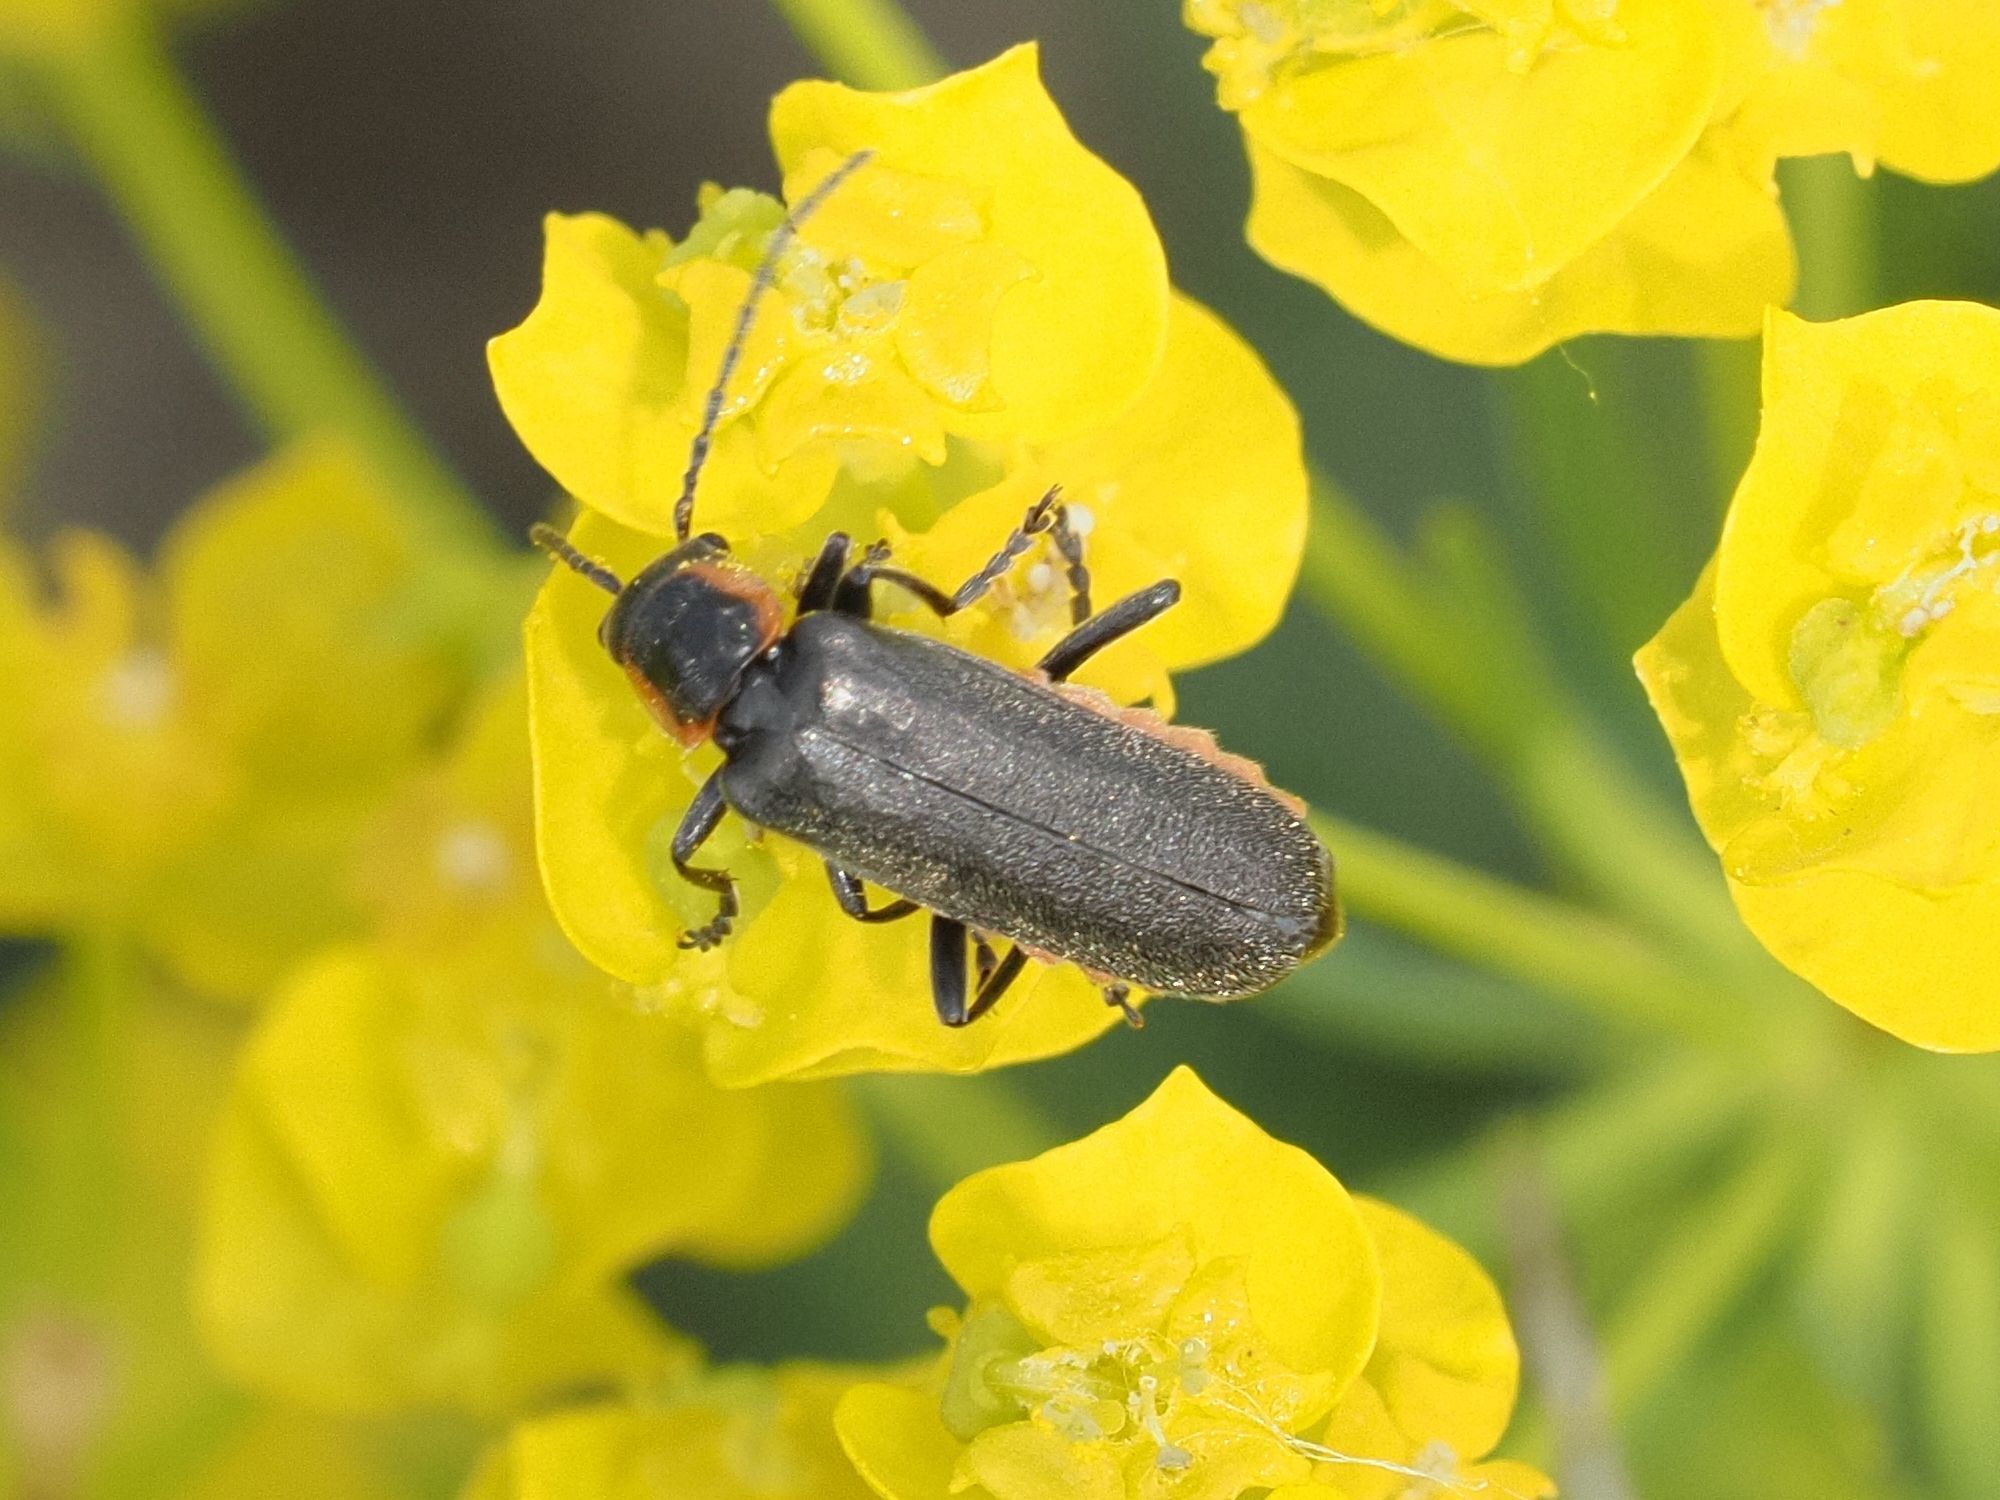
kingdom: Animalia
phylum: Arthropoda
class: Insecta
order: Coleoptera
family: Cantharidae
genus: Cantharis
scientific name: Cantharis pulicaria
